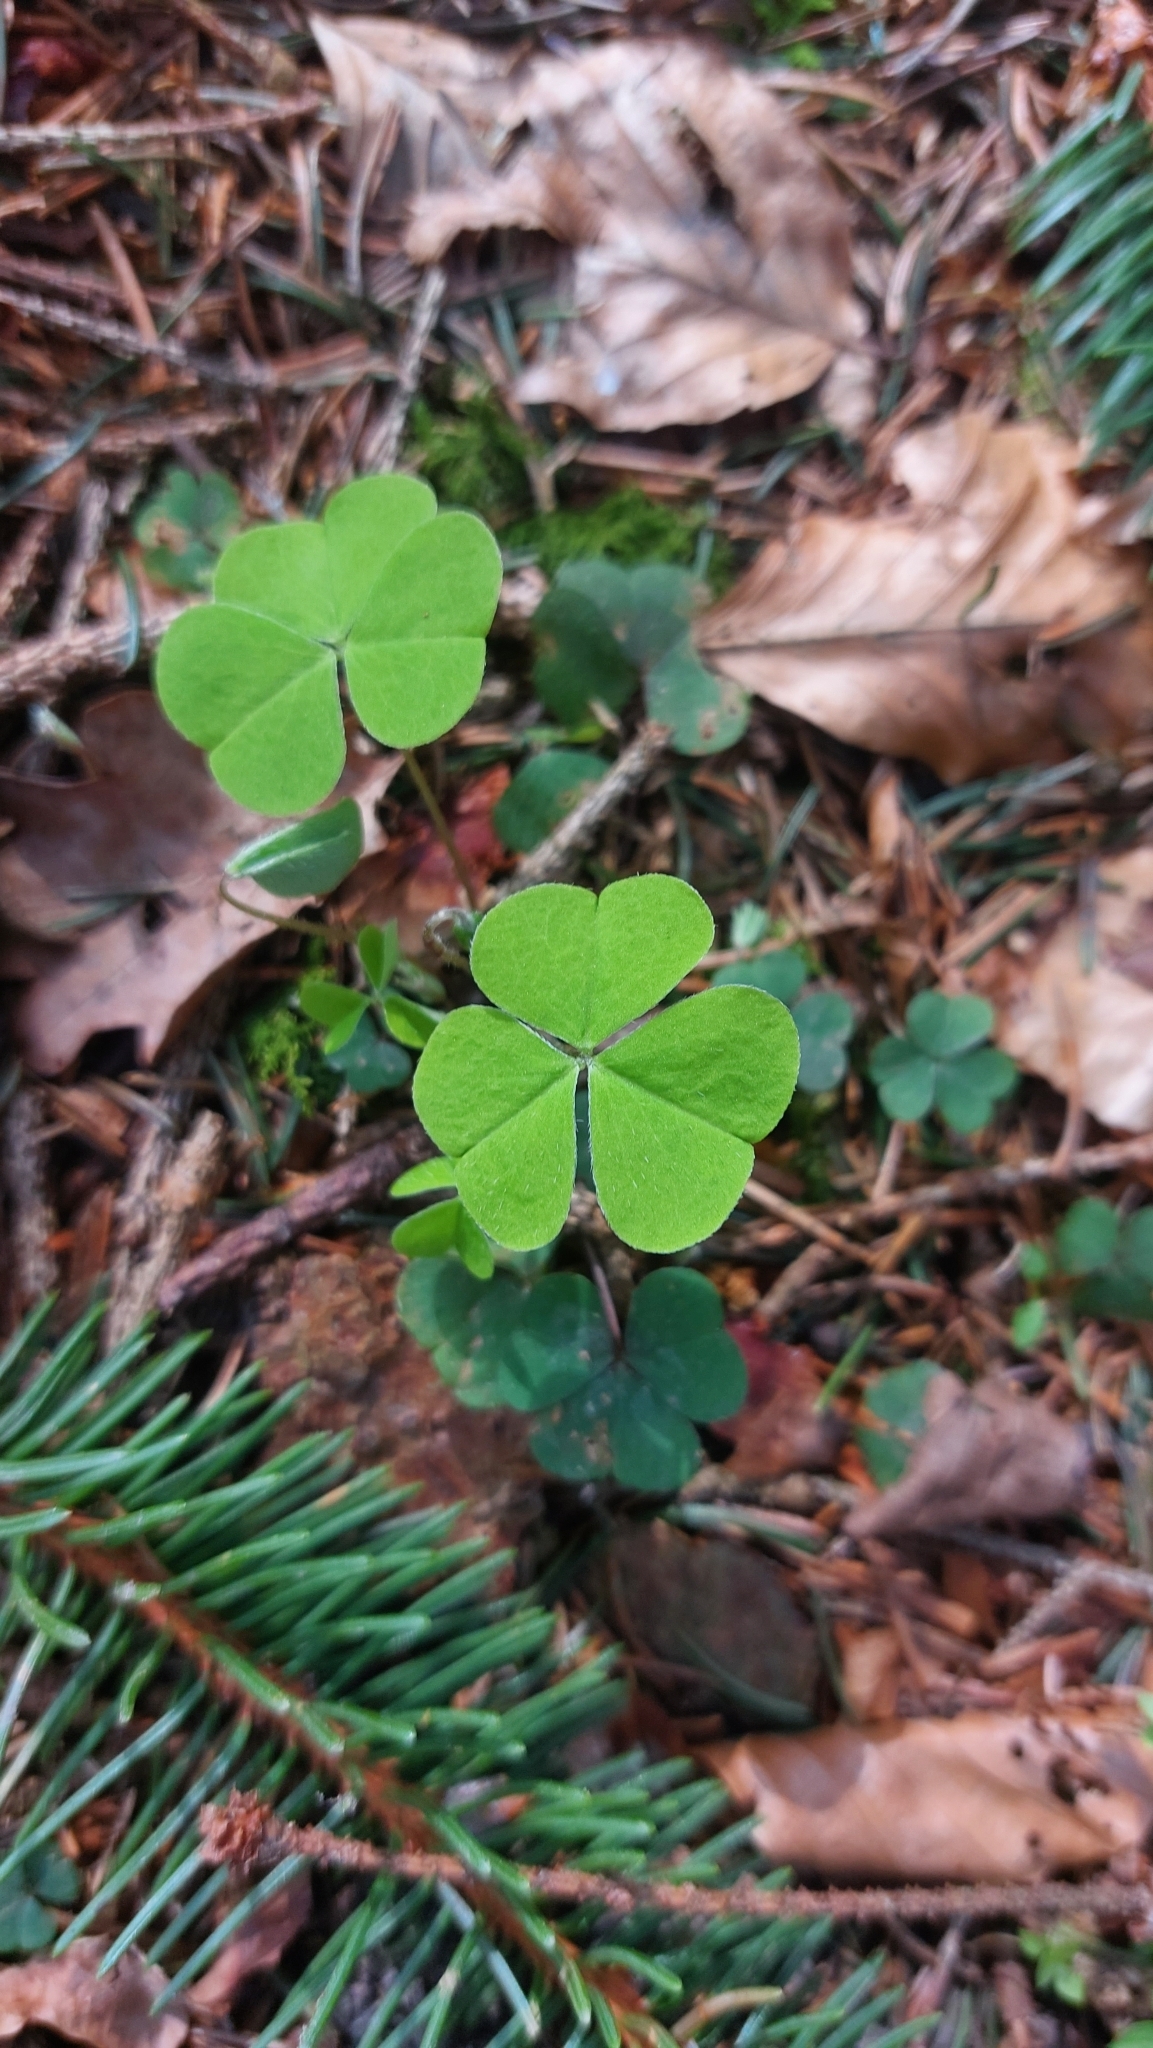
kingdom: Plantae
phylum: Tracheophyta
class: Magnoliopsida
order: Oxalidales
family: Oxalidaceae
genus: Oxalis
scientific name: Oxalis acetosella
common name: Wood-sorrel
